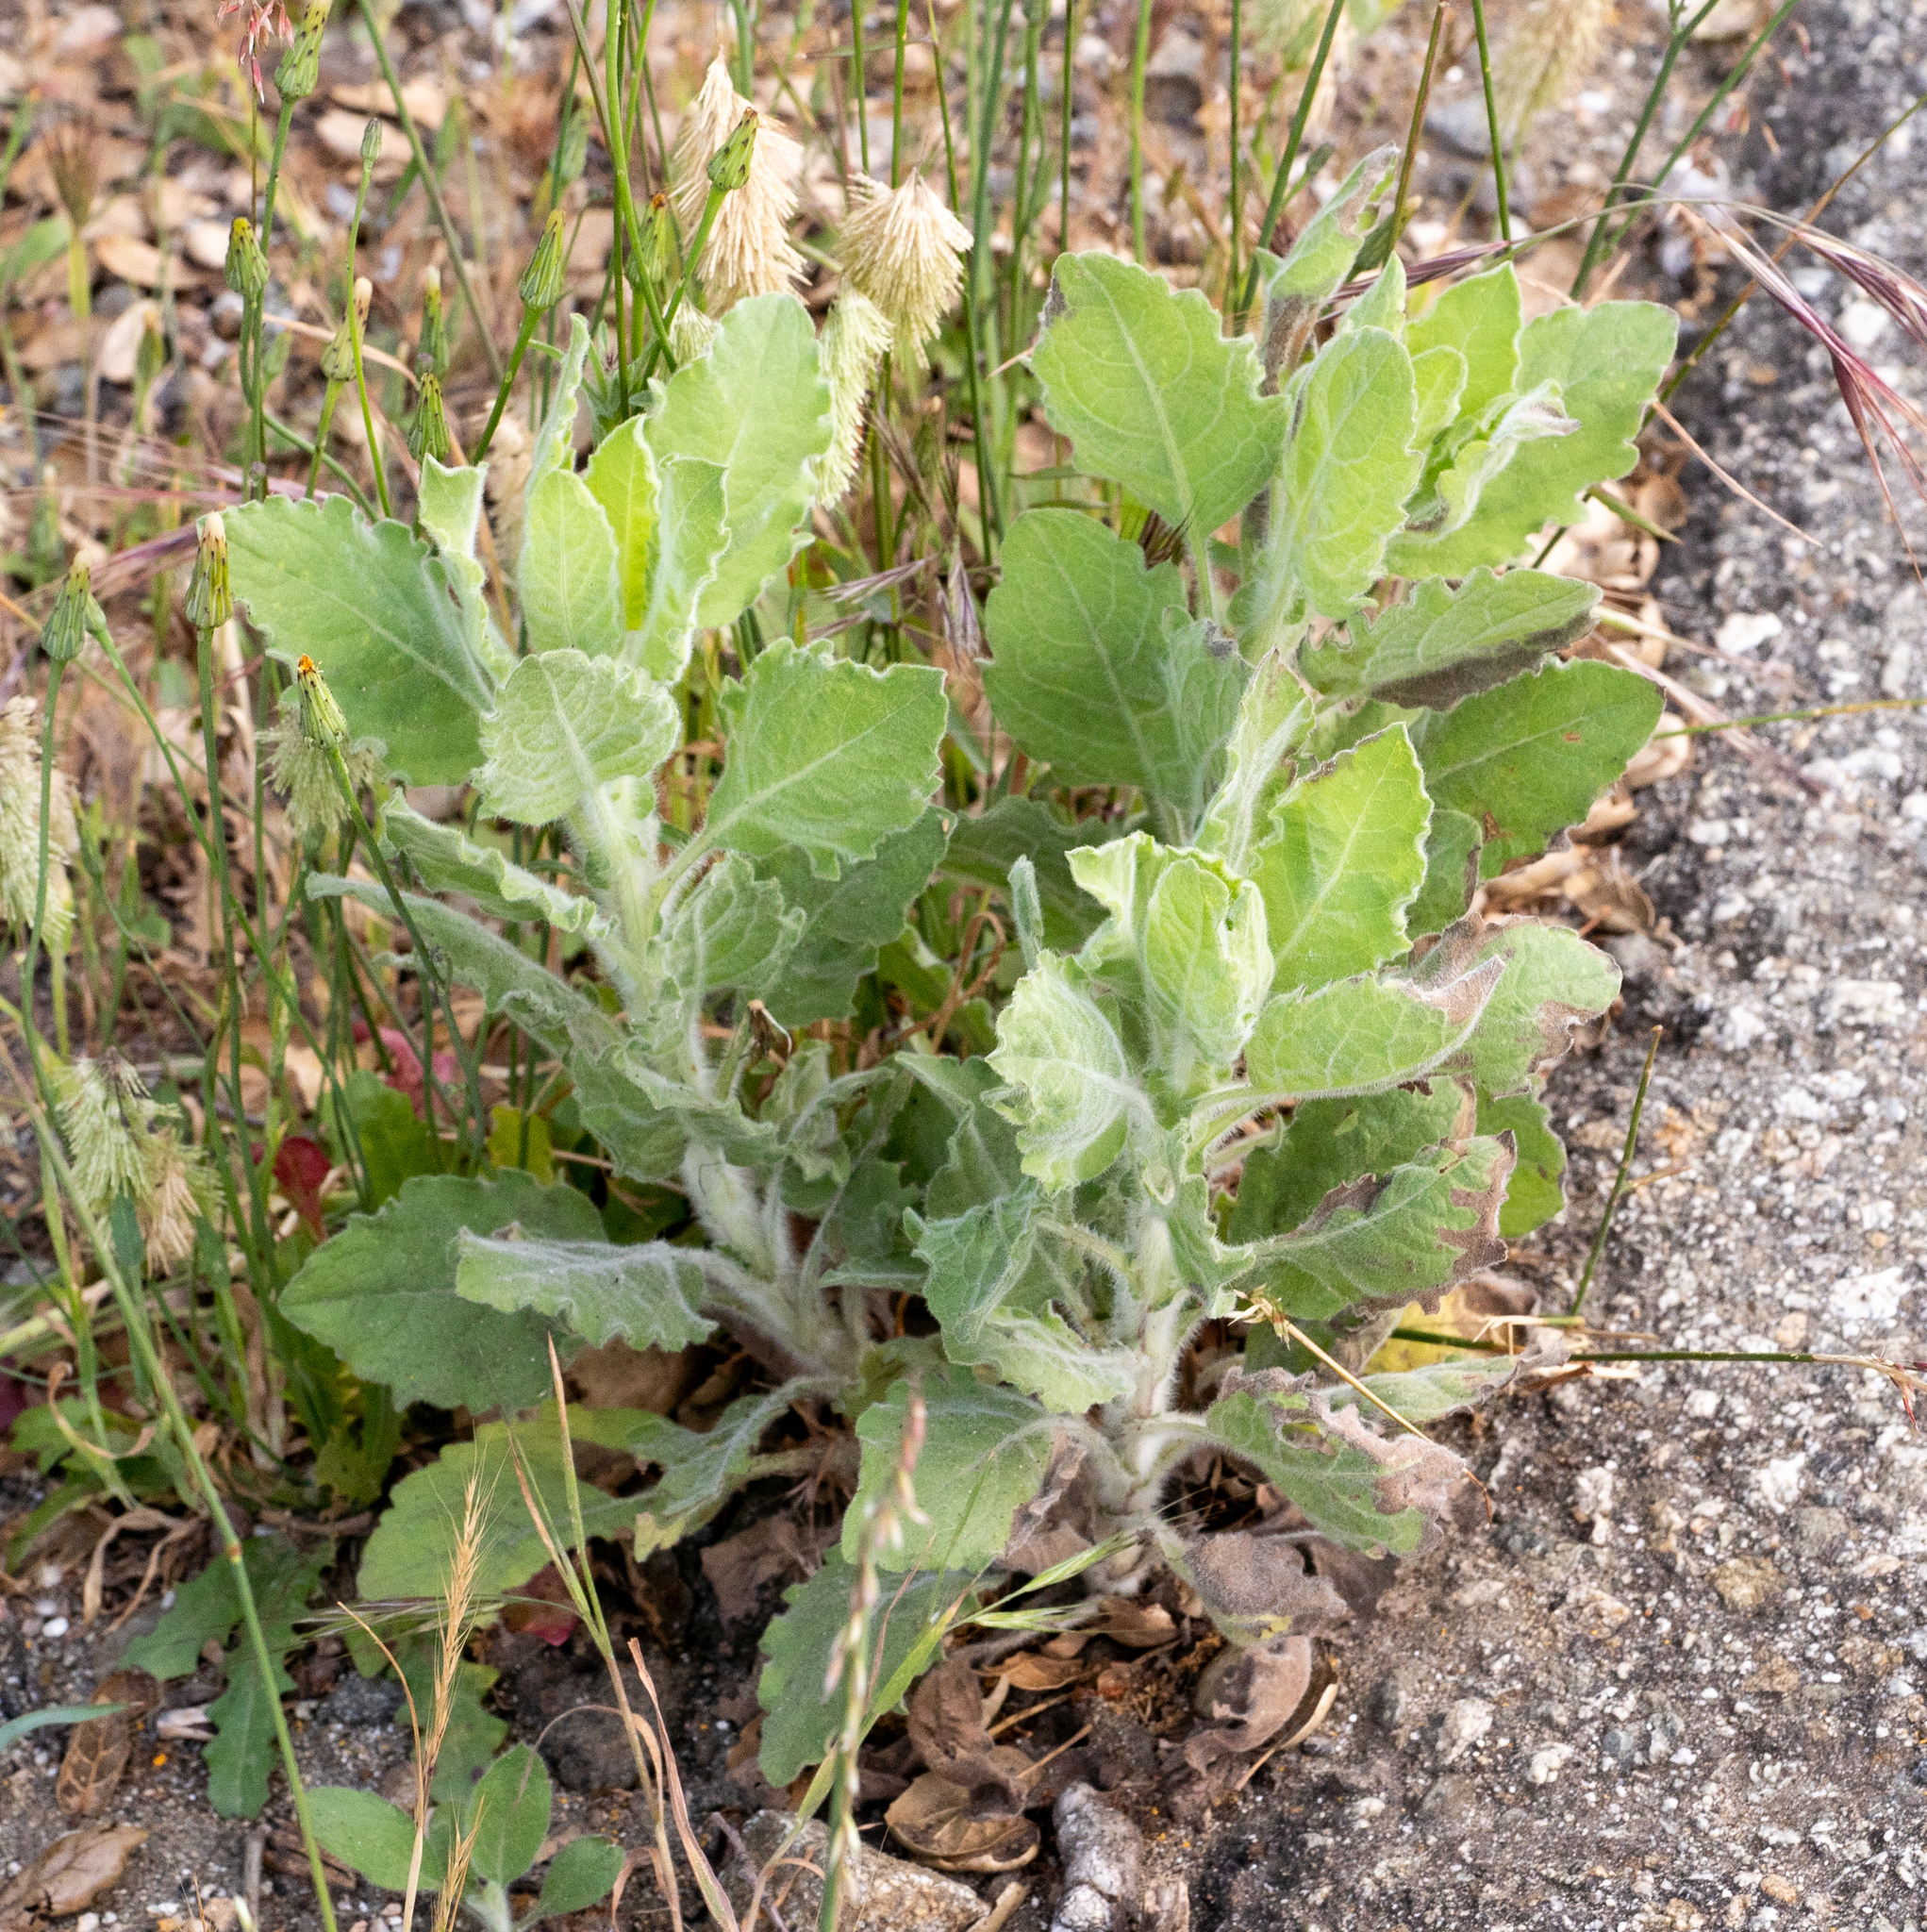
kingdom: Plantae
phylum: Tracheophyta
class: Magnoliopsida
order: Asterales
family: Asteraceae
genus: Heterotheca
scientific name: Heterotheca grandiflora
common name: Telegraphweed
